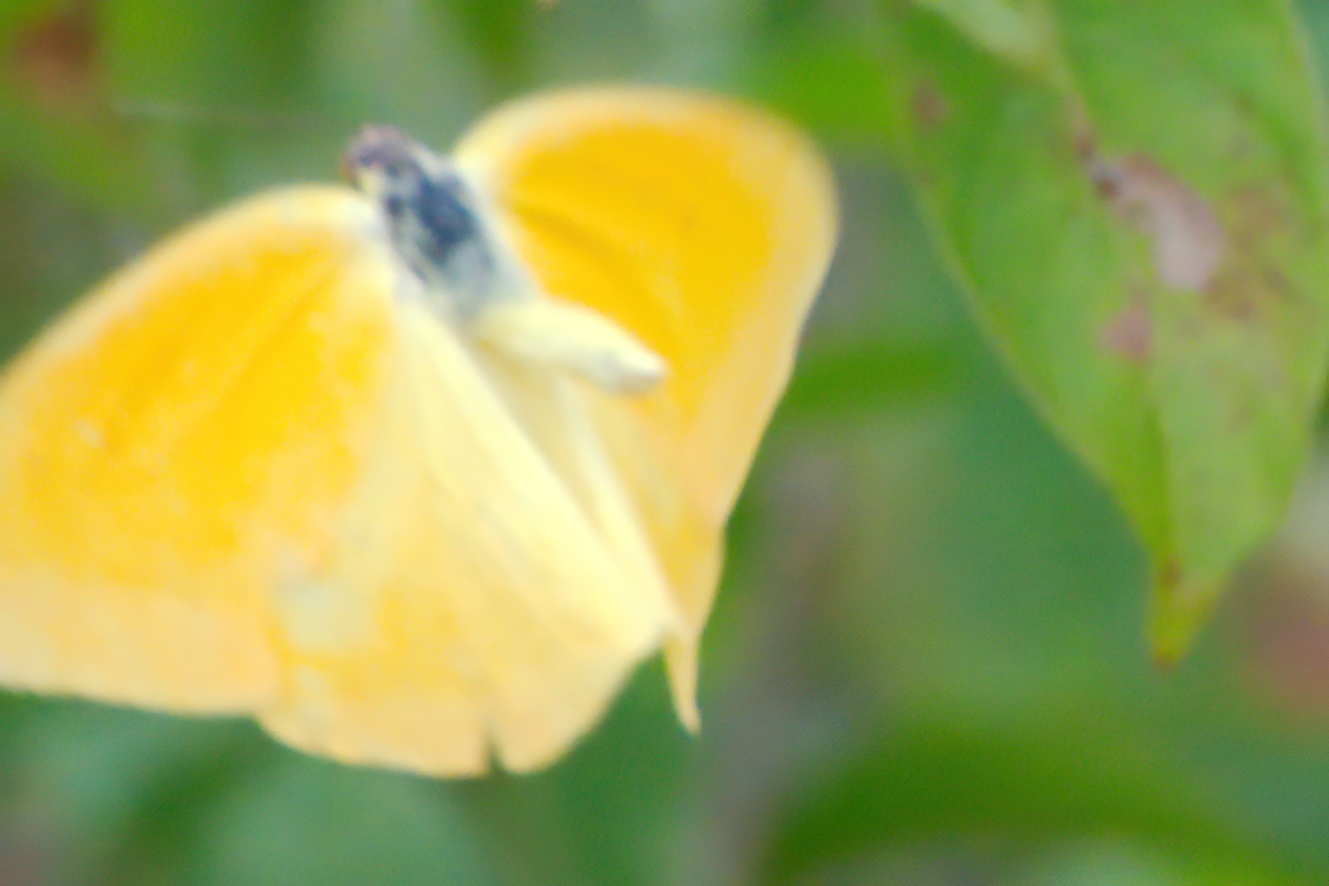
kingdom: Animalia
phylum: Arthropoda
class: Insecta
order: Lepidoptera
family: Pieridae
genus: Phoebis
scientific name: Phoebis agarithe
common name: Large orange sulphur
